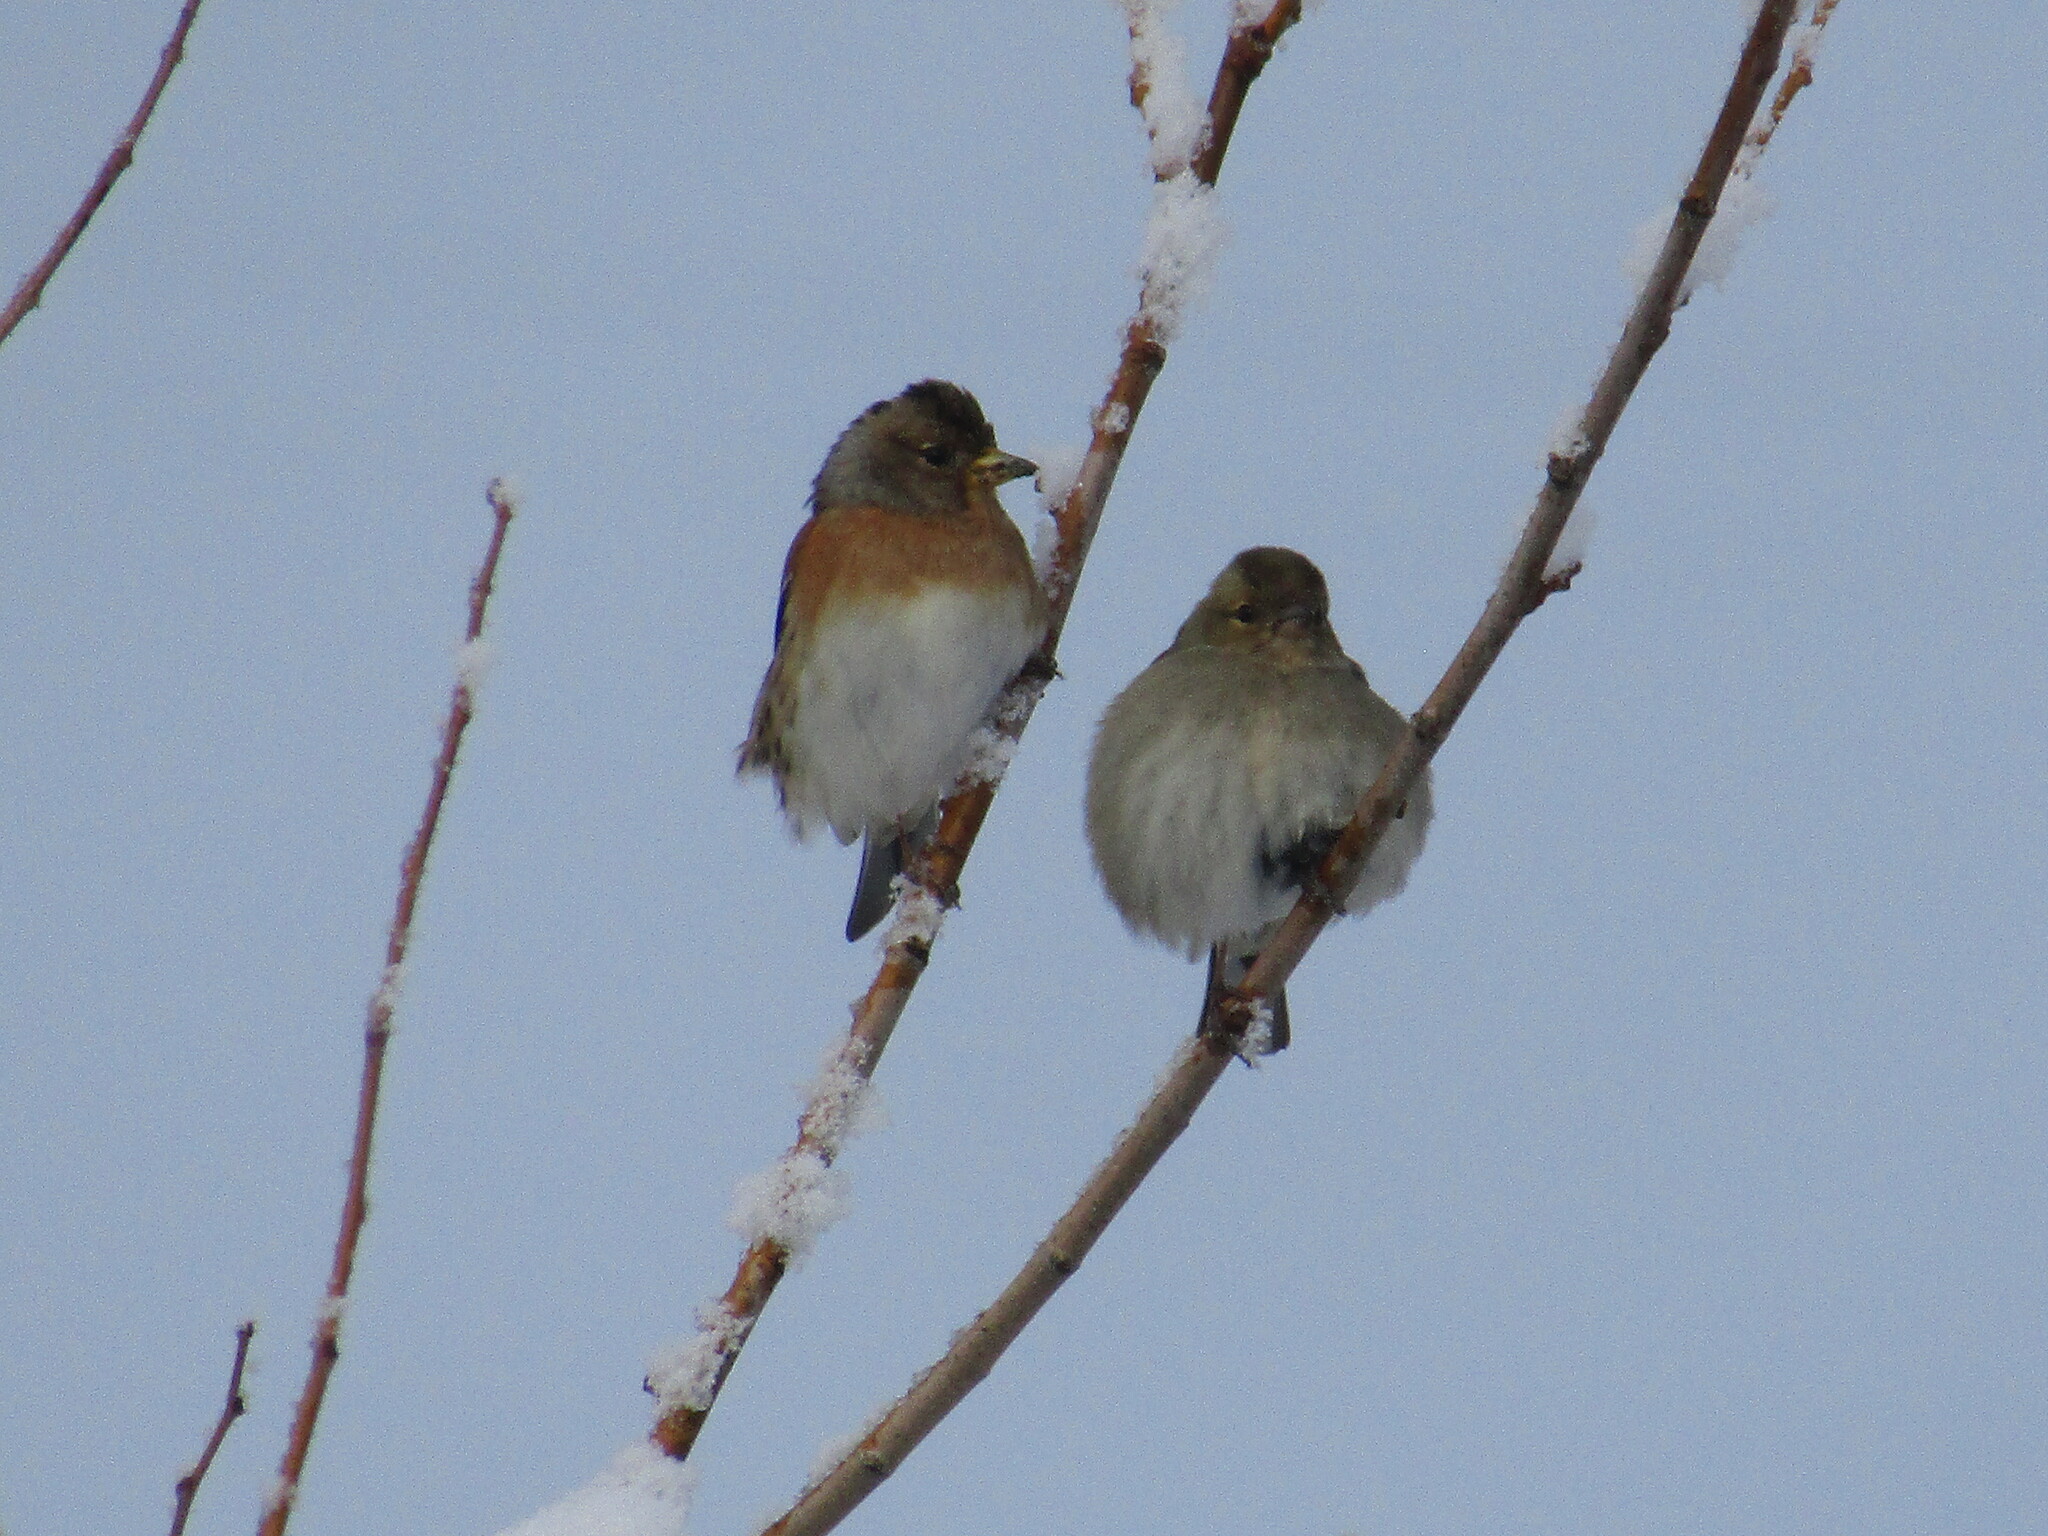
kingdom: Animalia
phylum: Chordata
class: Aves
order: Passeriformes
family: Fringillidae
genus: Fringilla
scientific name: Fringilla montifringilla
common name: Brambling
